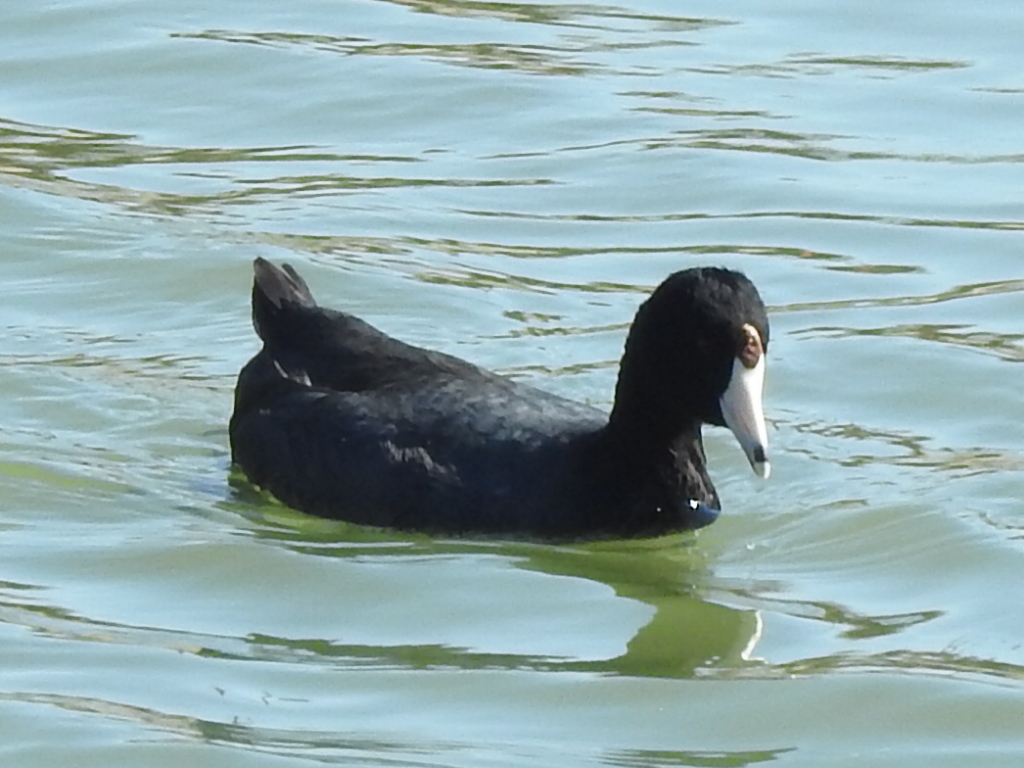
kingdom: Animalia
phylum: Chordata
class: Aves
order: Gruiformes
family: Rallidae
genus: Fulica
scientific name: Fulica americana
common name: American coot
